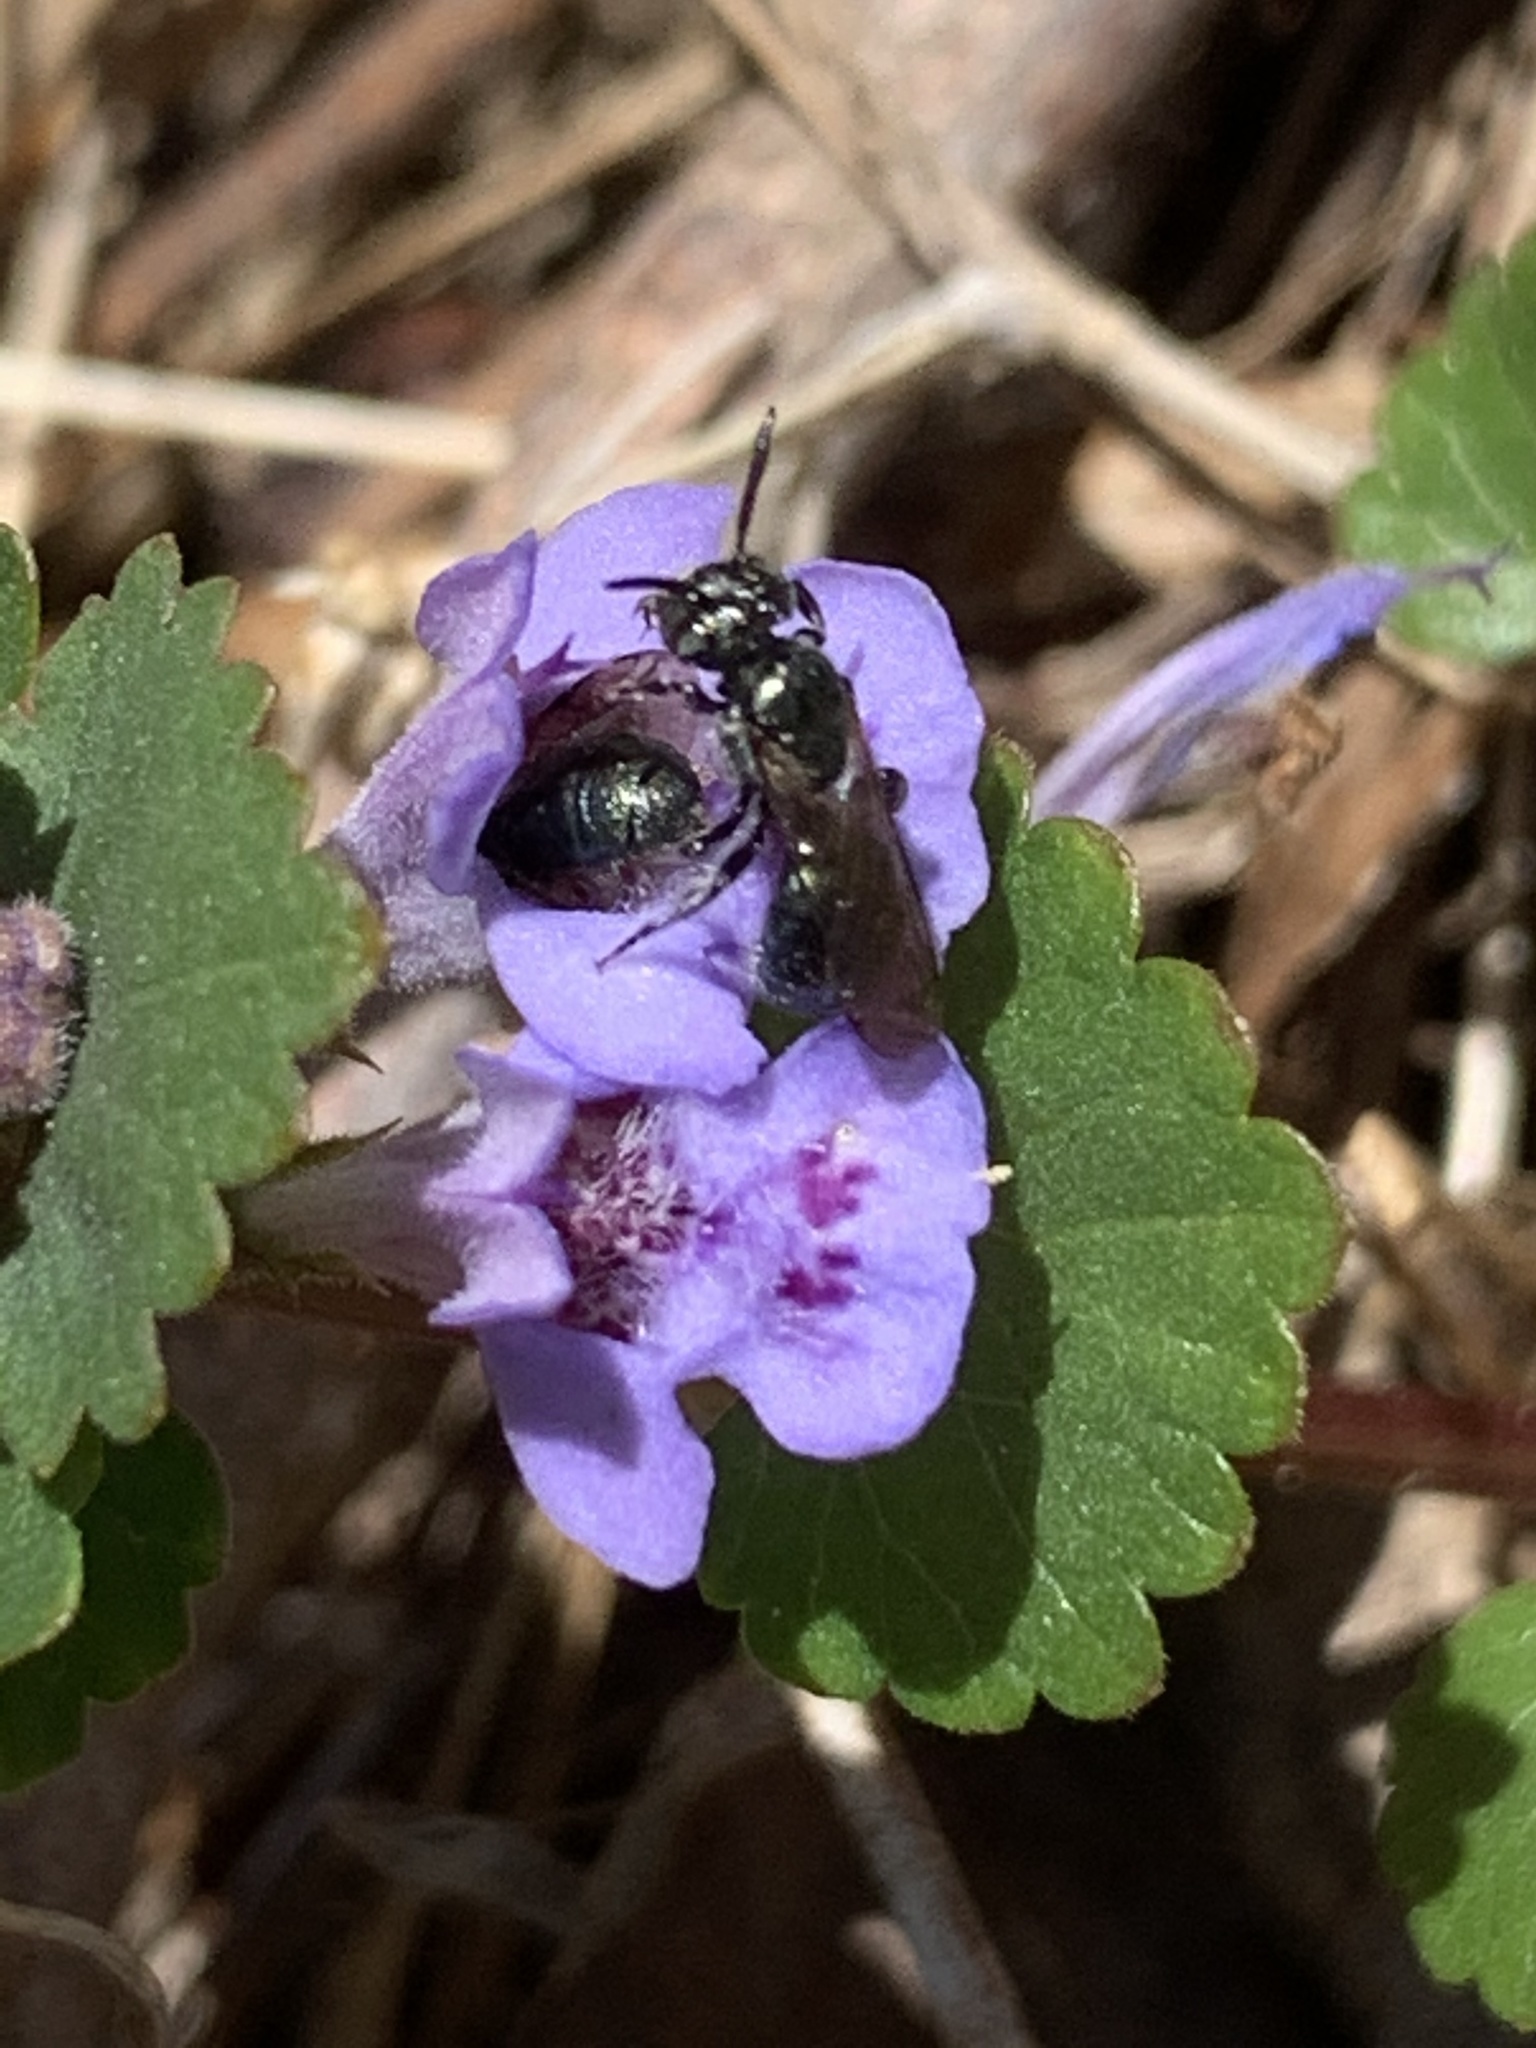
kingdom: Animalia
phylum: Arthropoda
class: Insecta
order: Hymenoptera
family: Apidae
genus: Zadontomerus
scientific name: Zadontomerus
